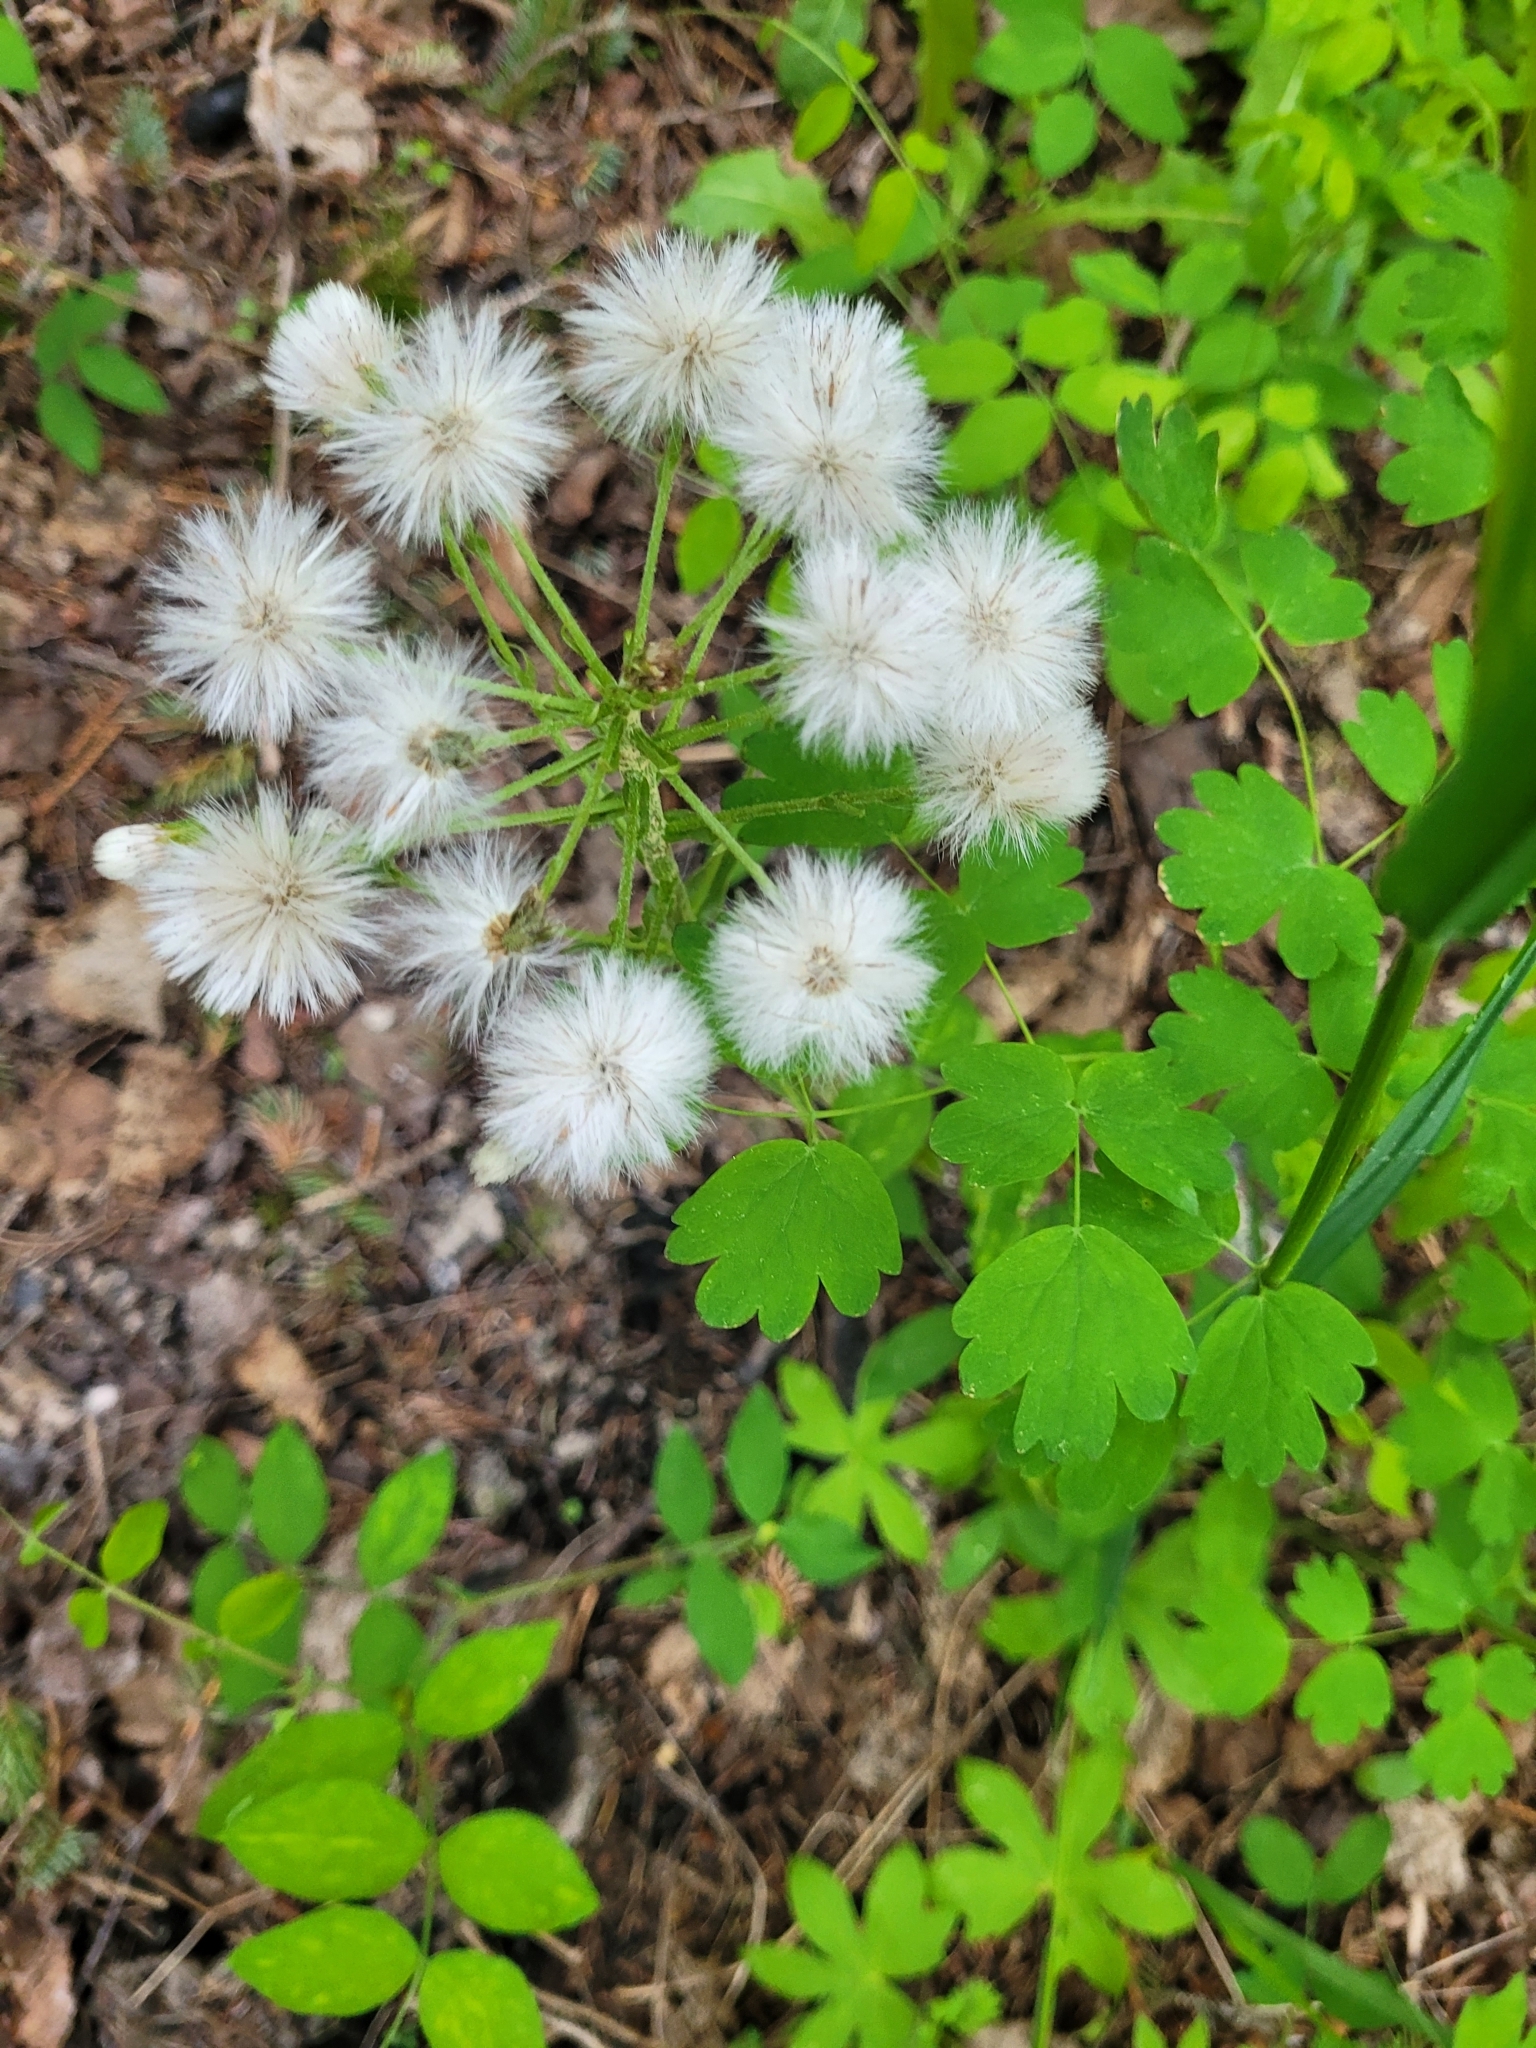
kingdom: Plantae
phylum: Tracheophyta
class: Magnoliopsida
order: Asterales
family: Asteraceae
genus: Petasites
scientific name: Petasites frigidus
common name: Arctic butterbur
